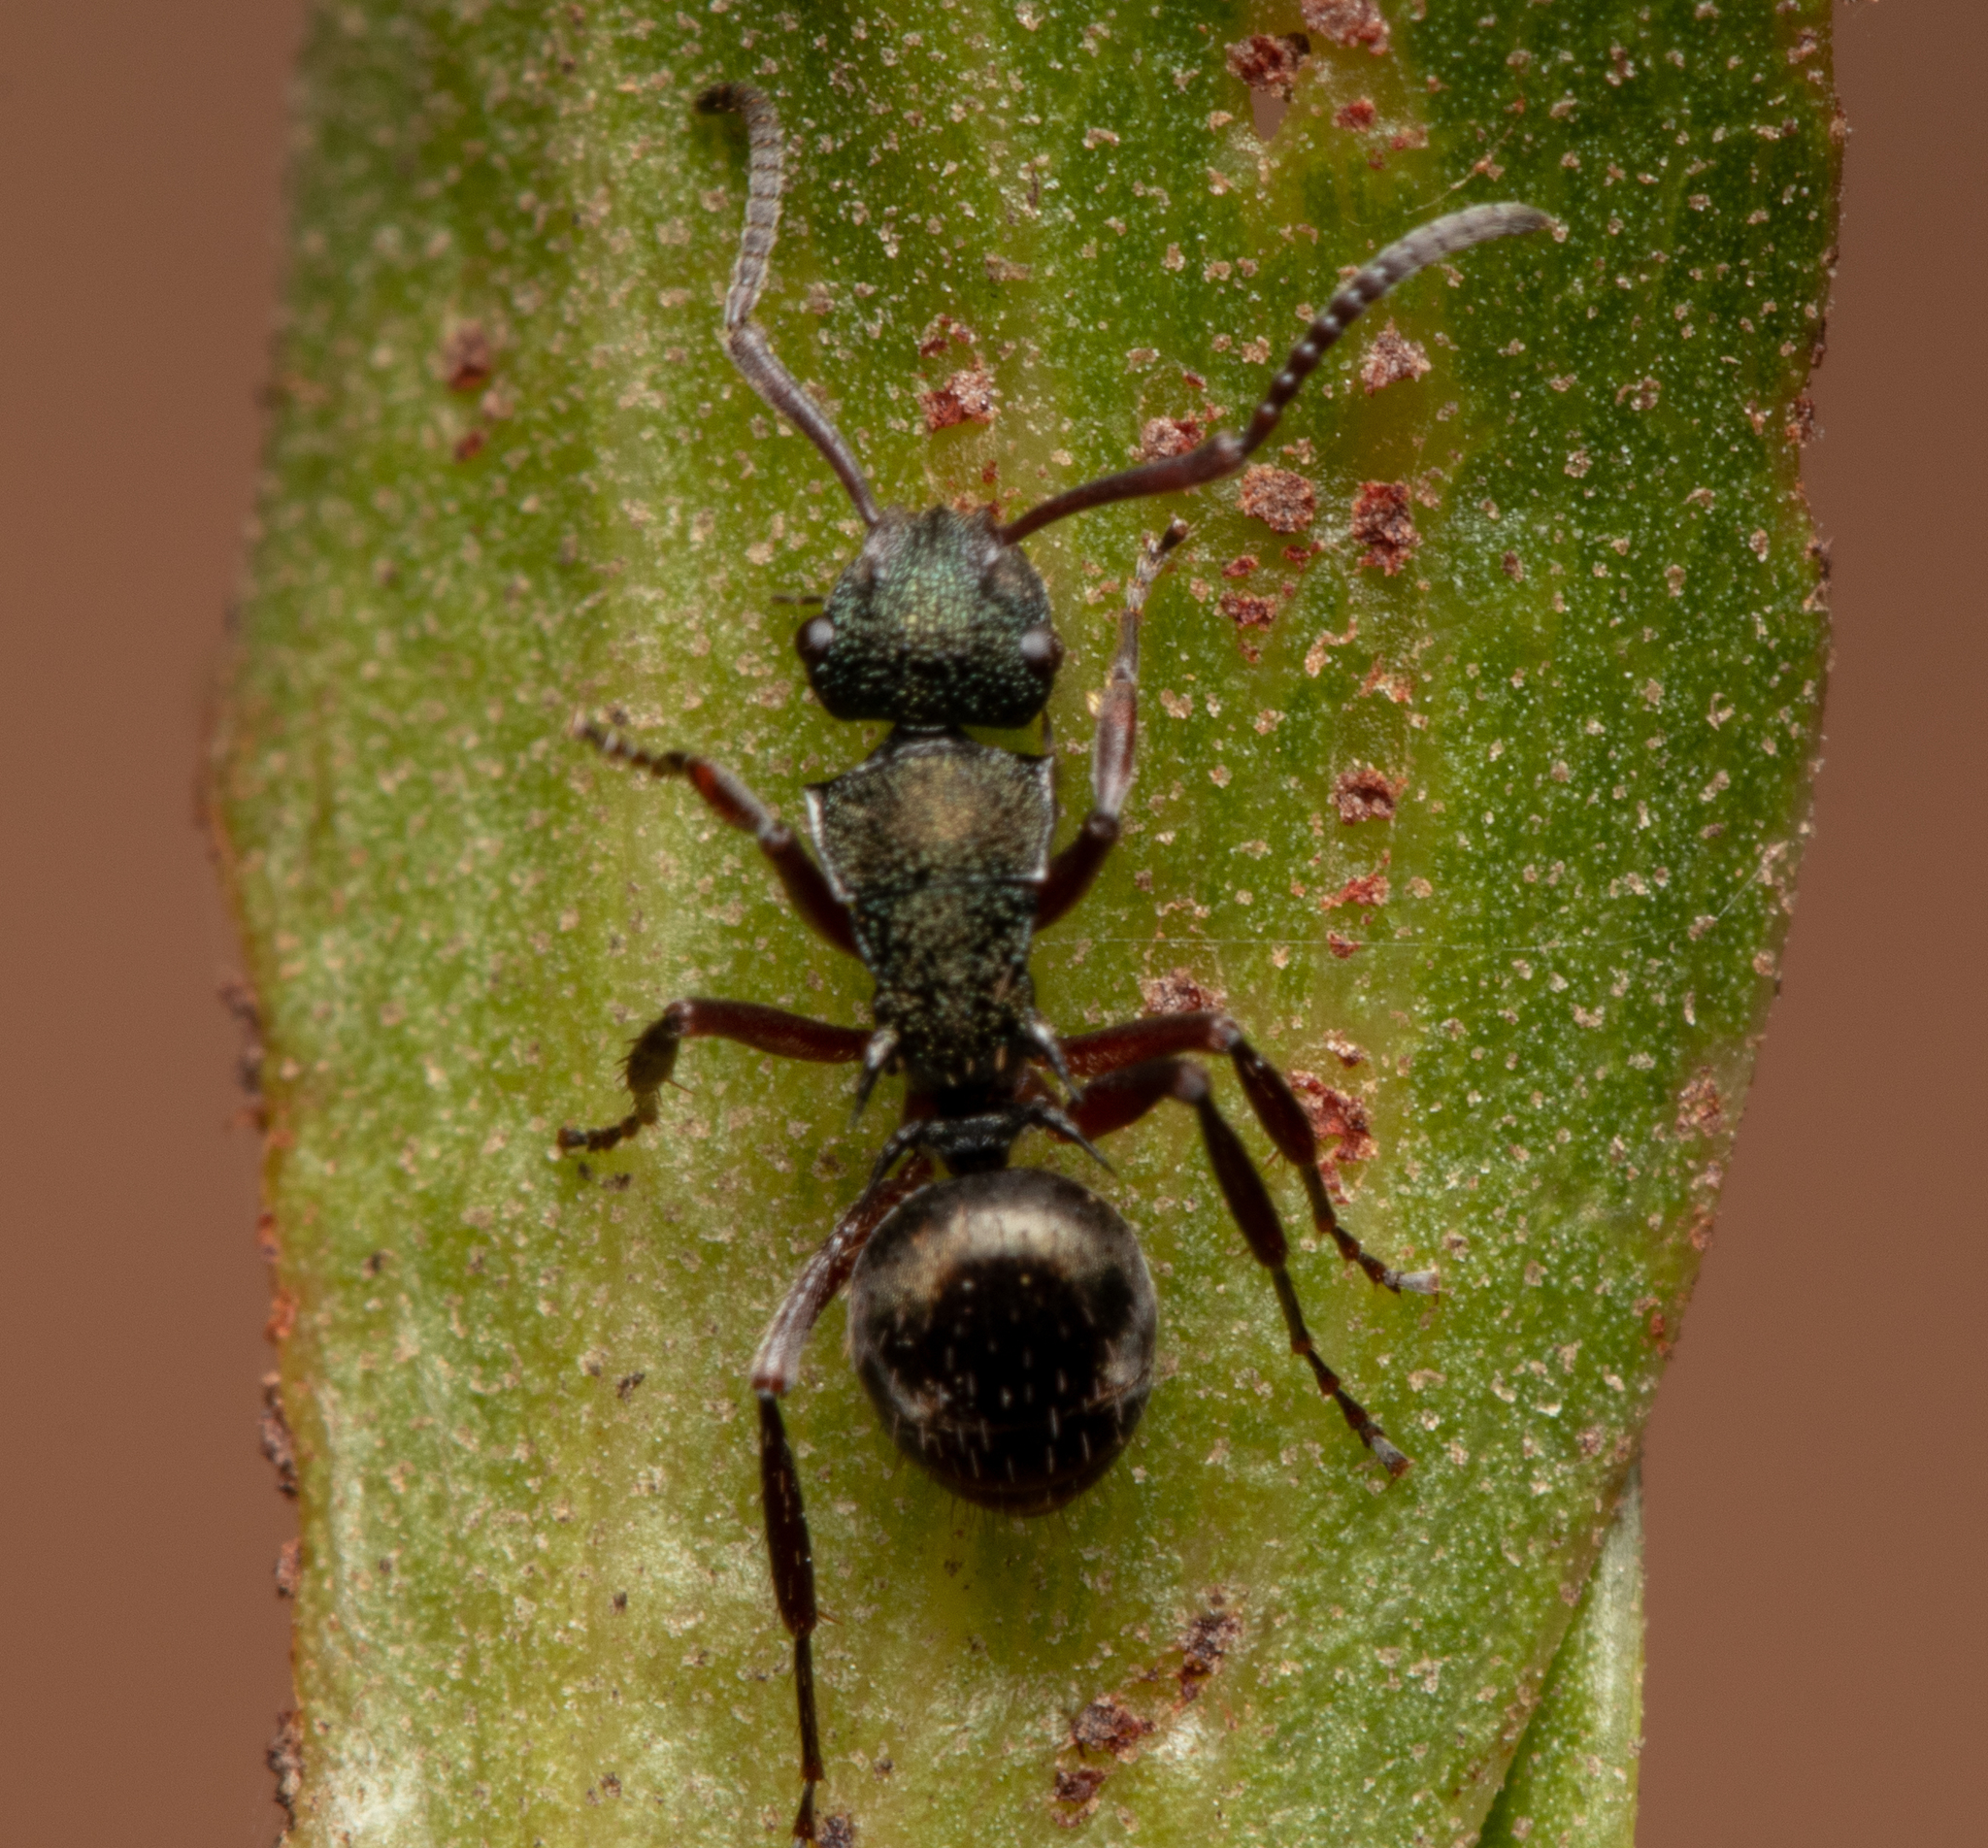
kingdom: Animalia
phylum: Arthropoda
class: Insecta
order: Hymenoptera
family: Formicidae
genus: Polyrhachis
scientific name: Polyrhachis hookeri
